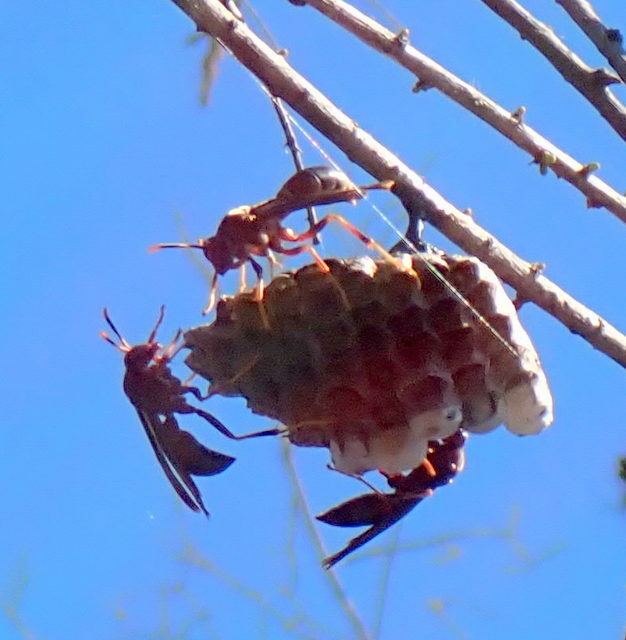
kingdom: Animalia
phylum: Arthropoda
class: Insecta
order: Hymenoptera
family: Eumenidae
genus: Polistes
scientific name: Polistes annularis
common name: Ringed paper wasp
